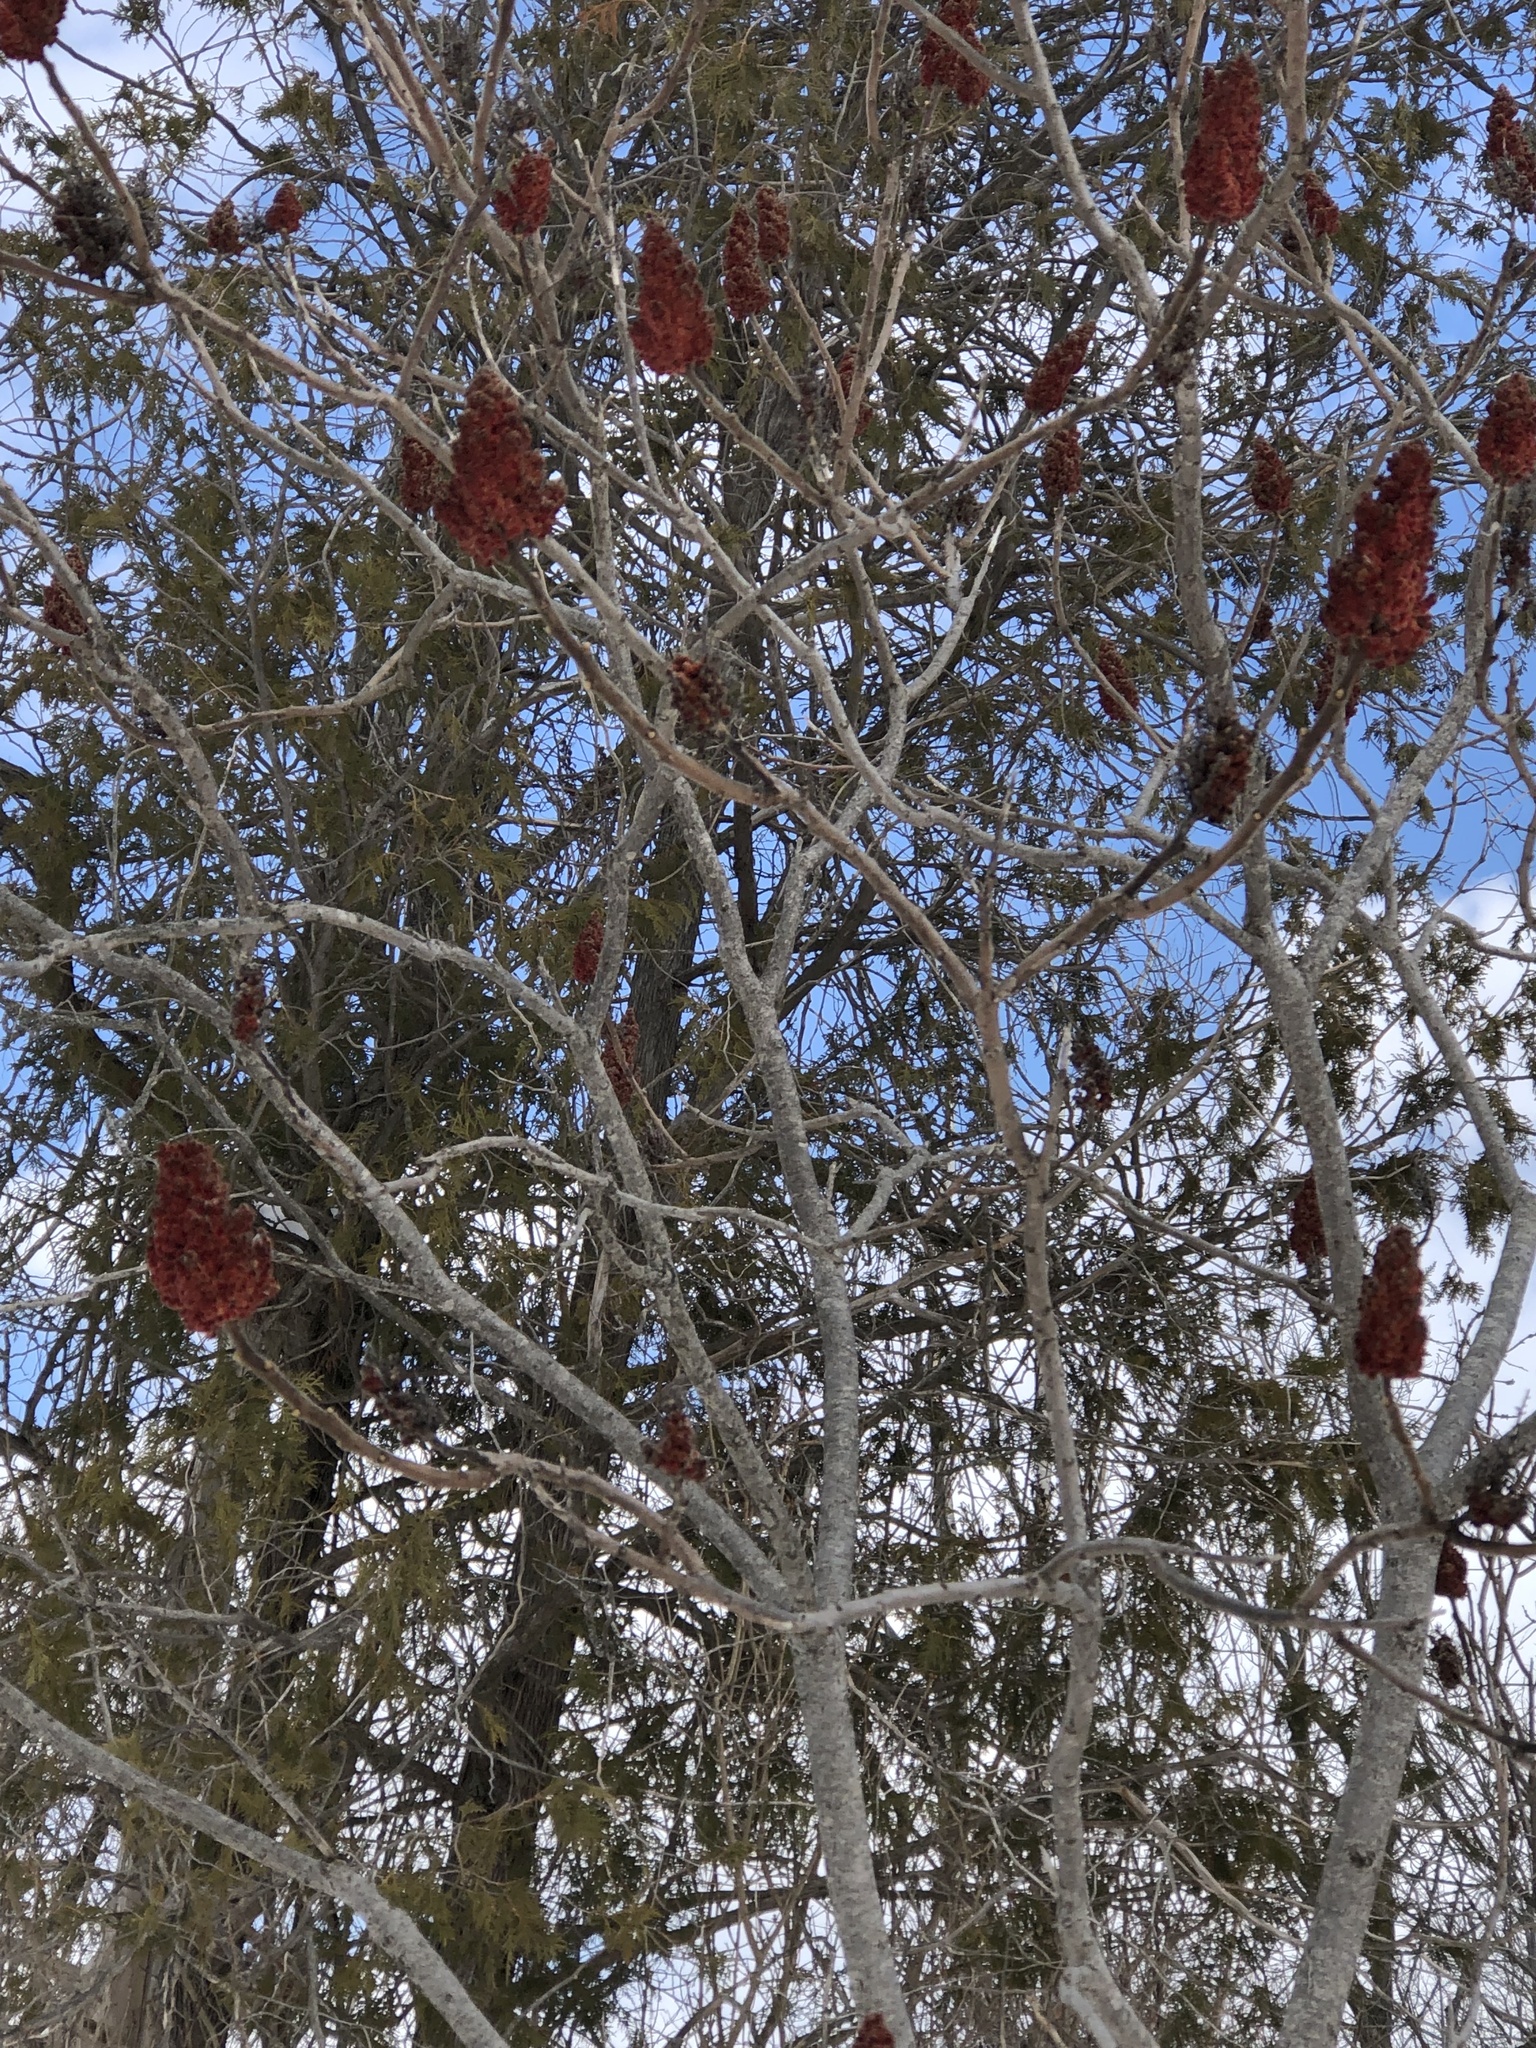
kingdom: Plantae
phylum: Tracheophyta
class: Magnoliopsida
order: Sapindales
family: Anacardiaceae
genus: Rhus
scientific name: Rhus typhina
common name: Staghorn sumac
